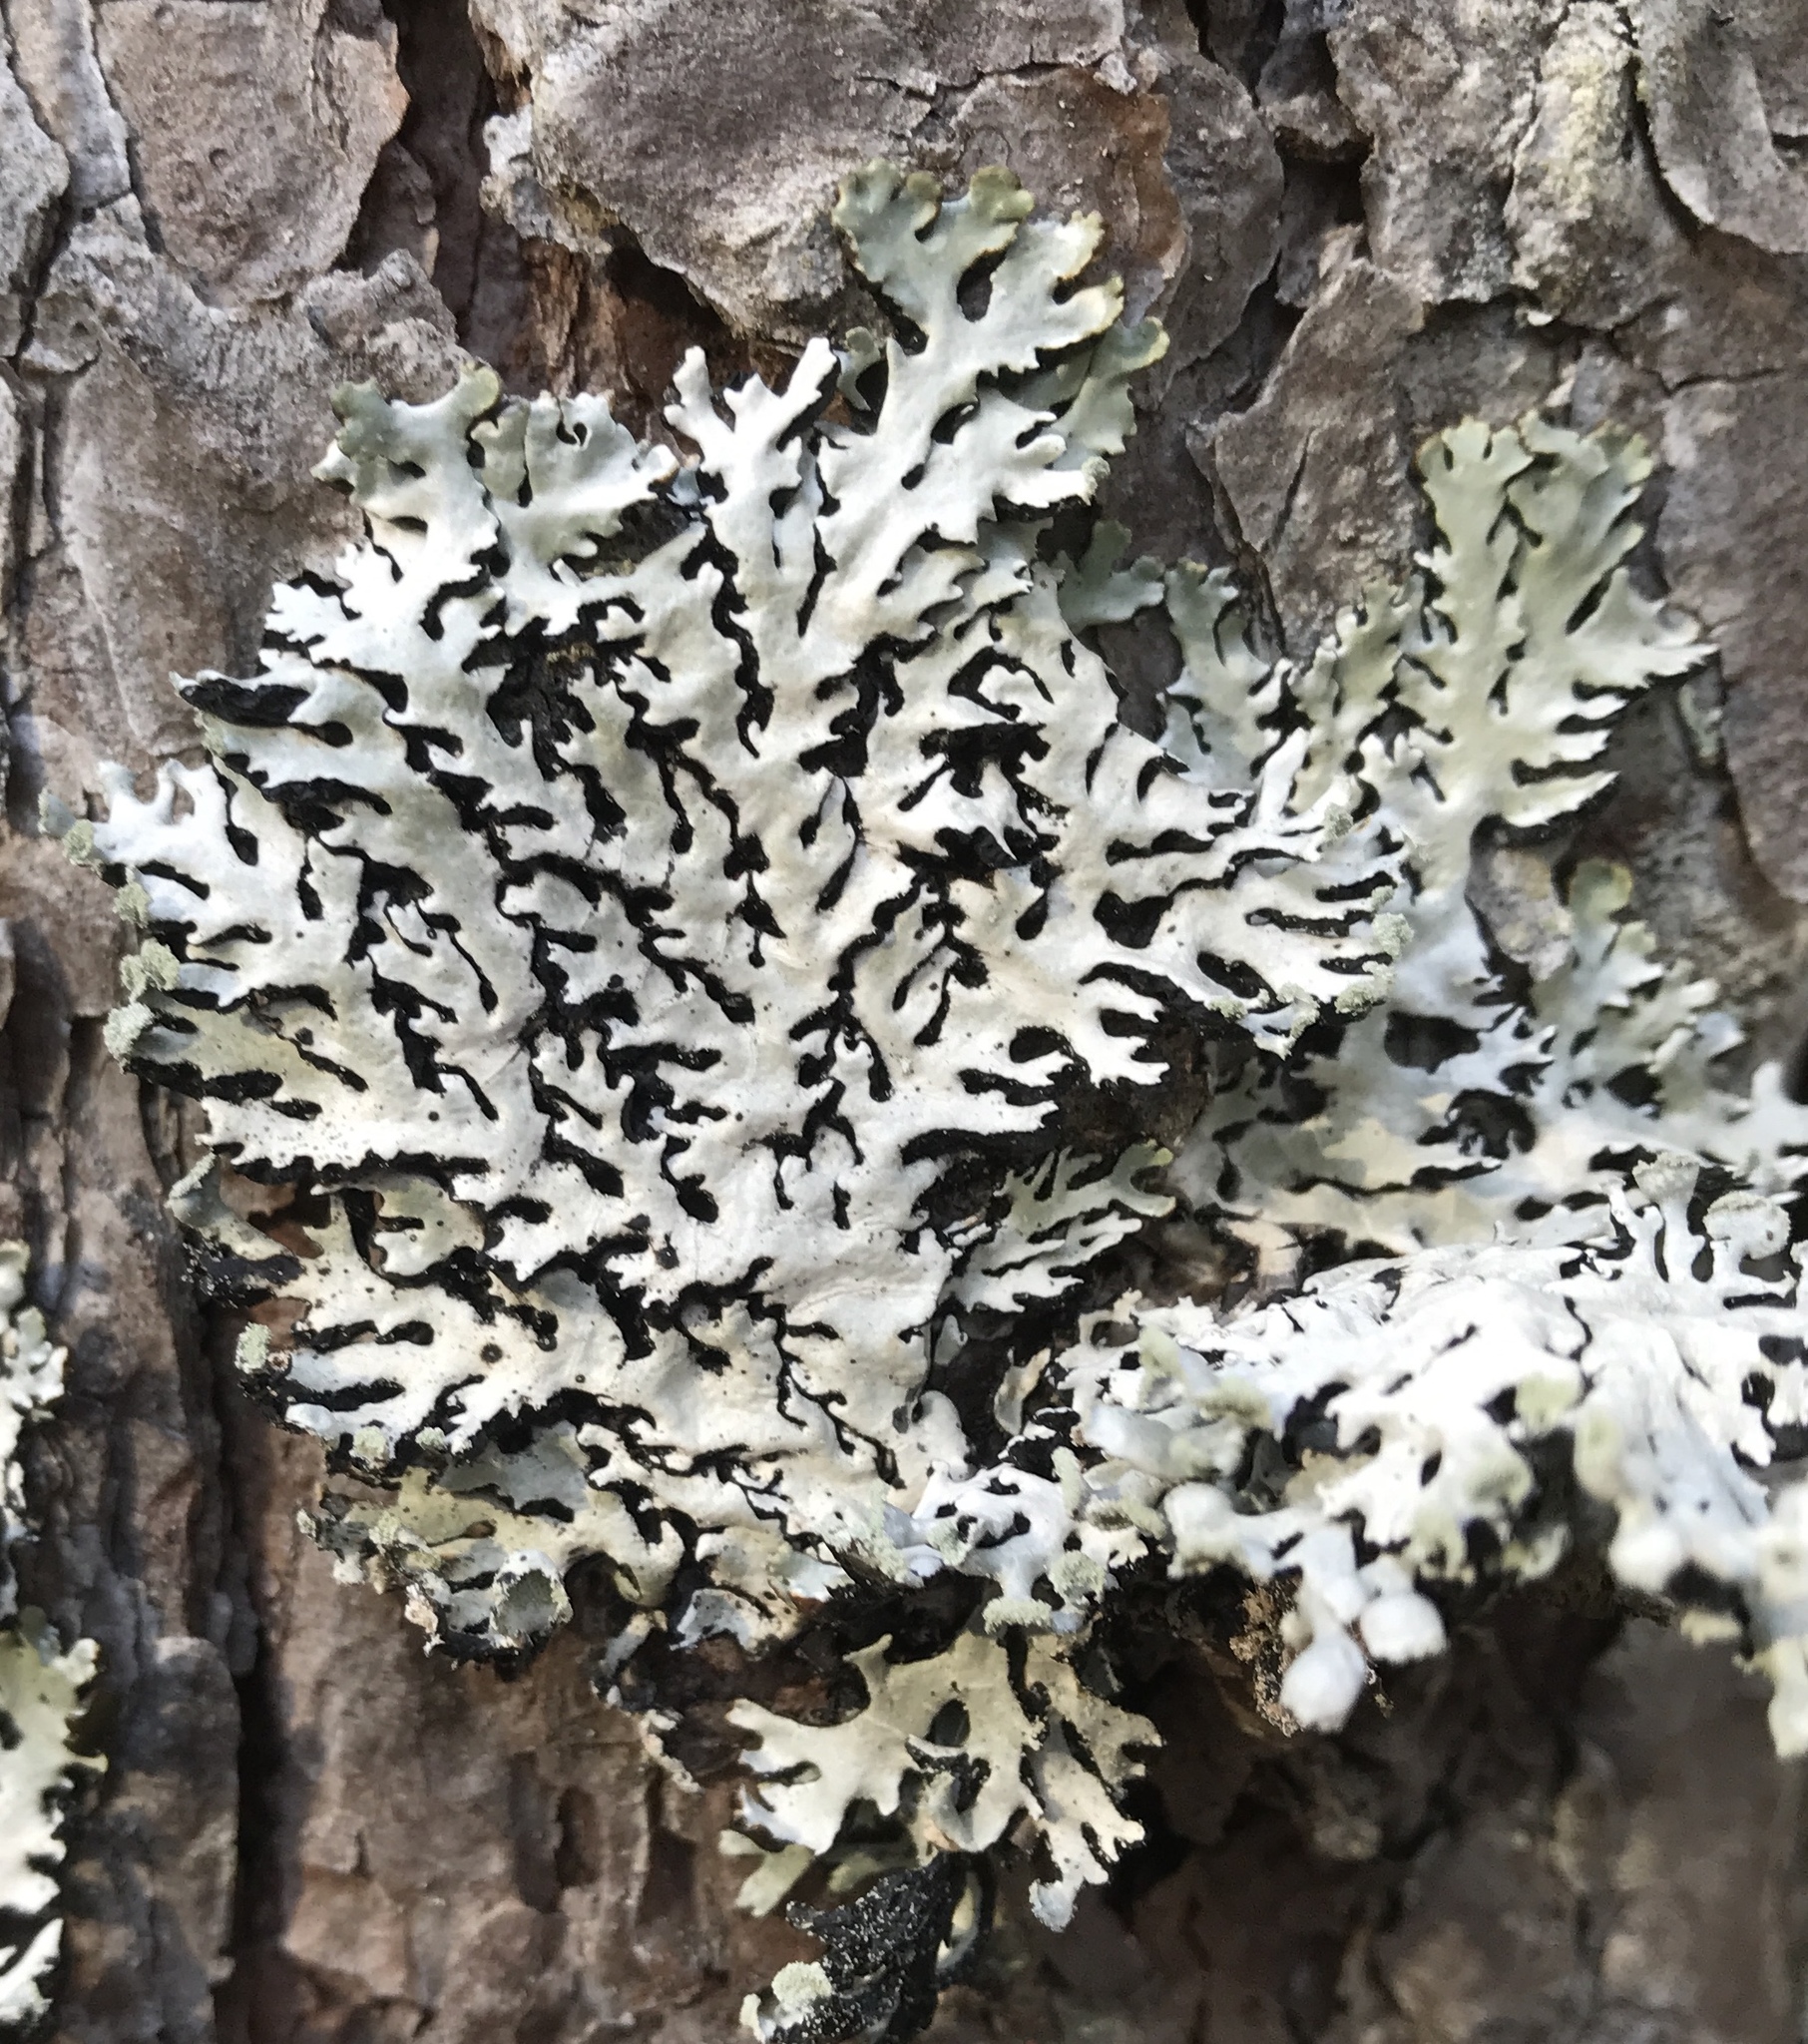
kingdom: Fungi
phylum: Ascomycota
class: Lecanoromycetes
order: Lecanorales
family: Parmeliaceae
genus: Hypogymnia
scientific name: Hypogymnia physodes
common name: Dark crottle
